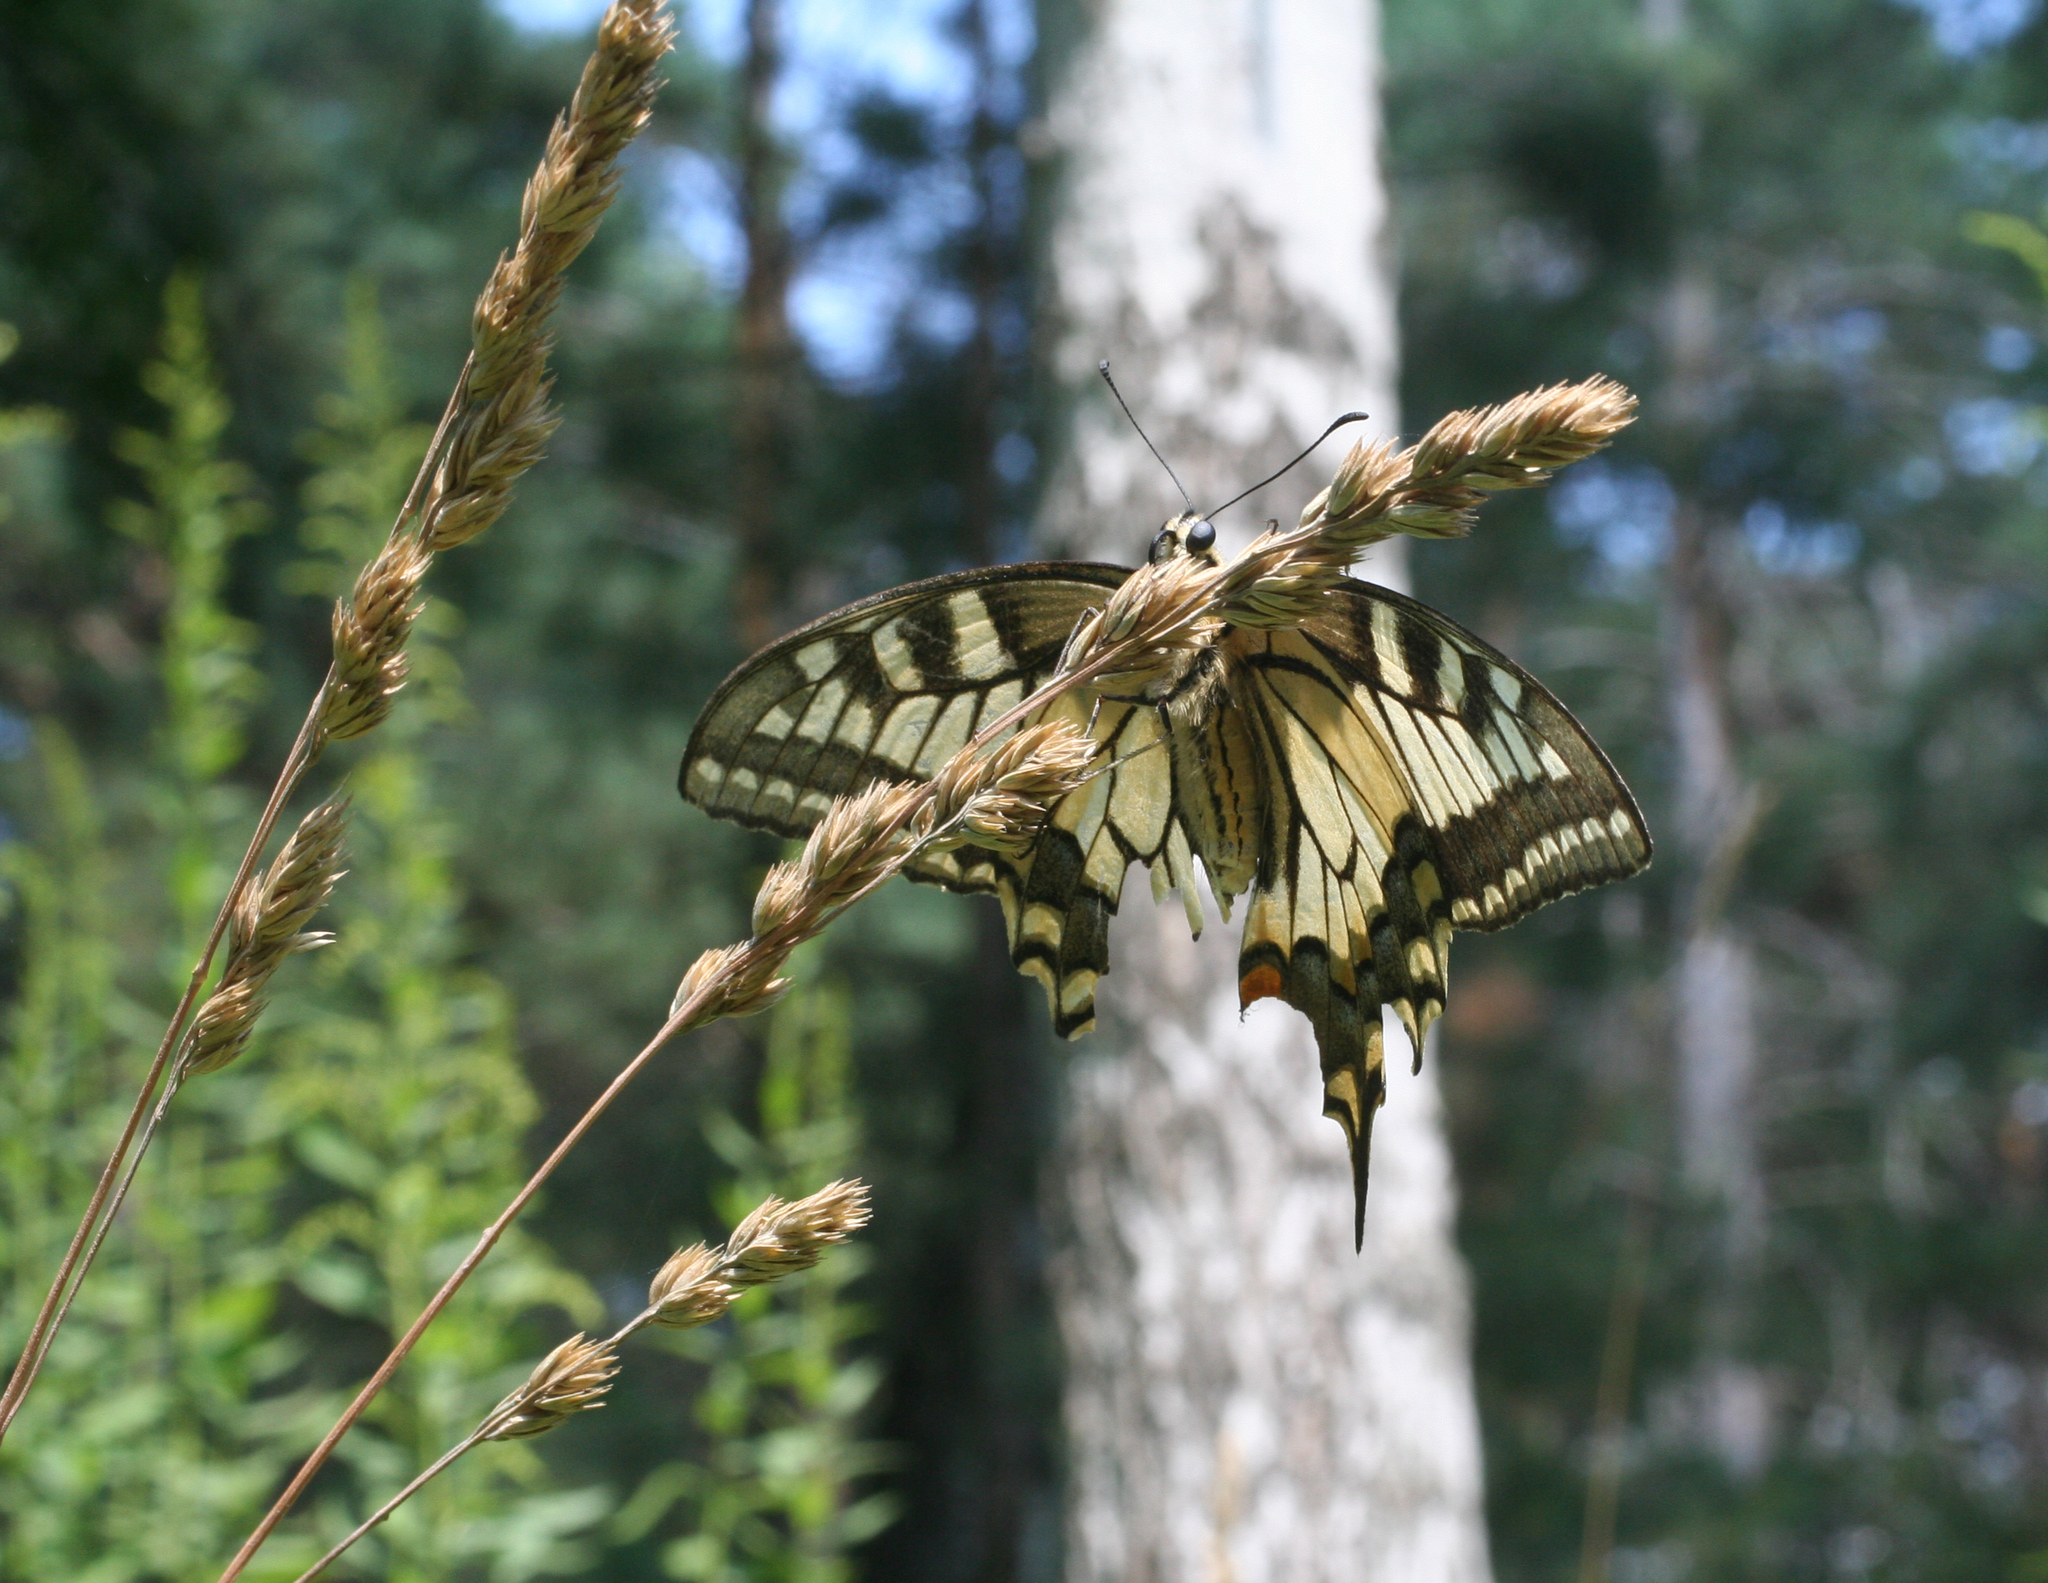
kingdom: Plantae
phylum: Tracheophyta
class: Liliopsida
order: Poales
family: Poaceae
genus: Dactylis
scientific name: Dactylis glomerata
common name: Orchardgrass
